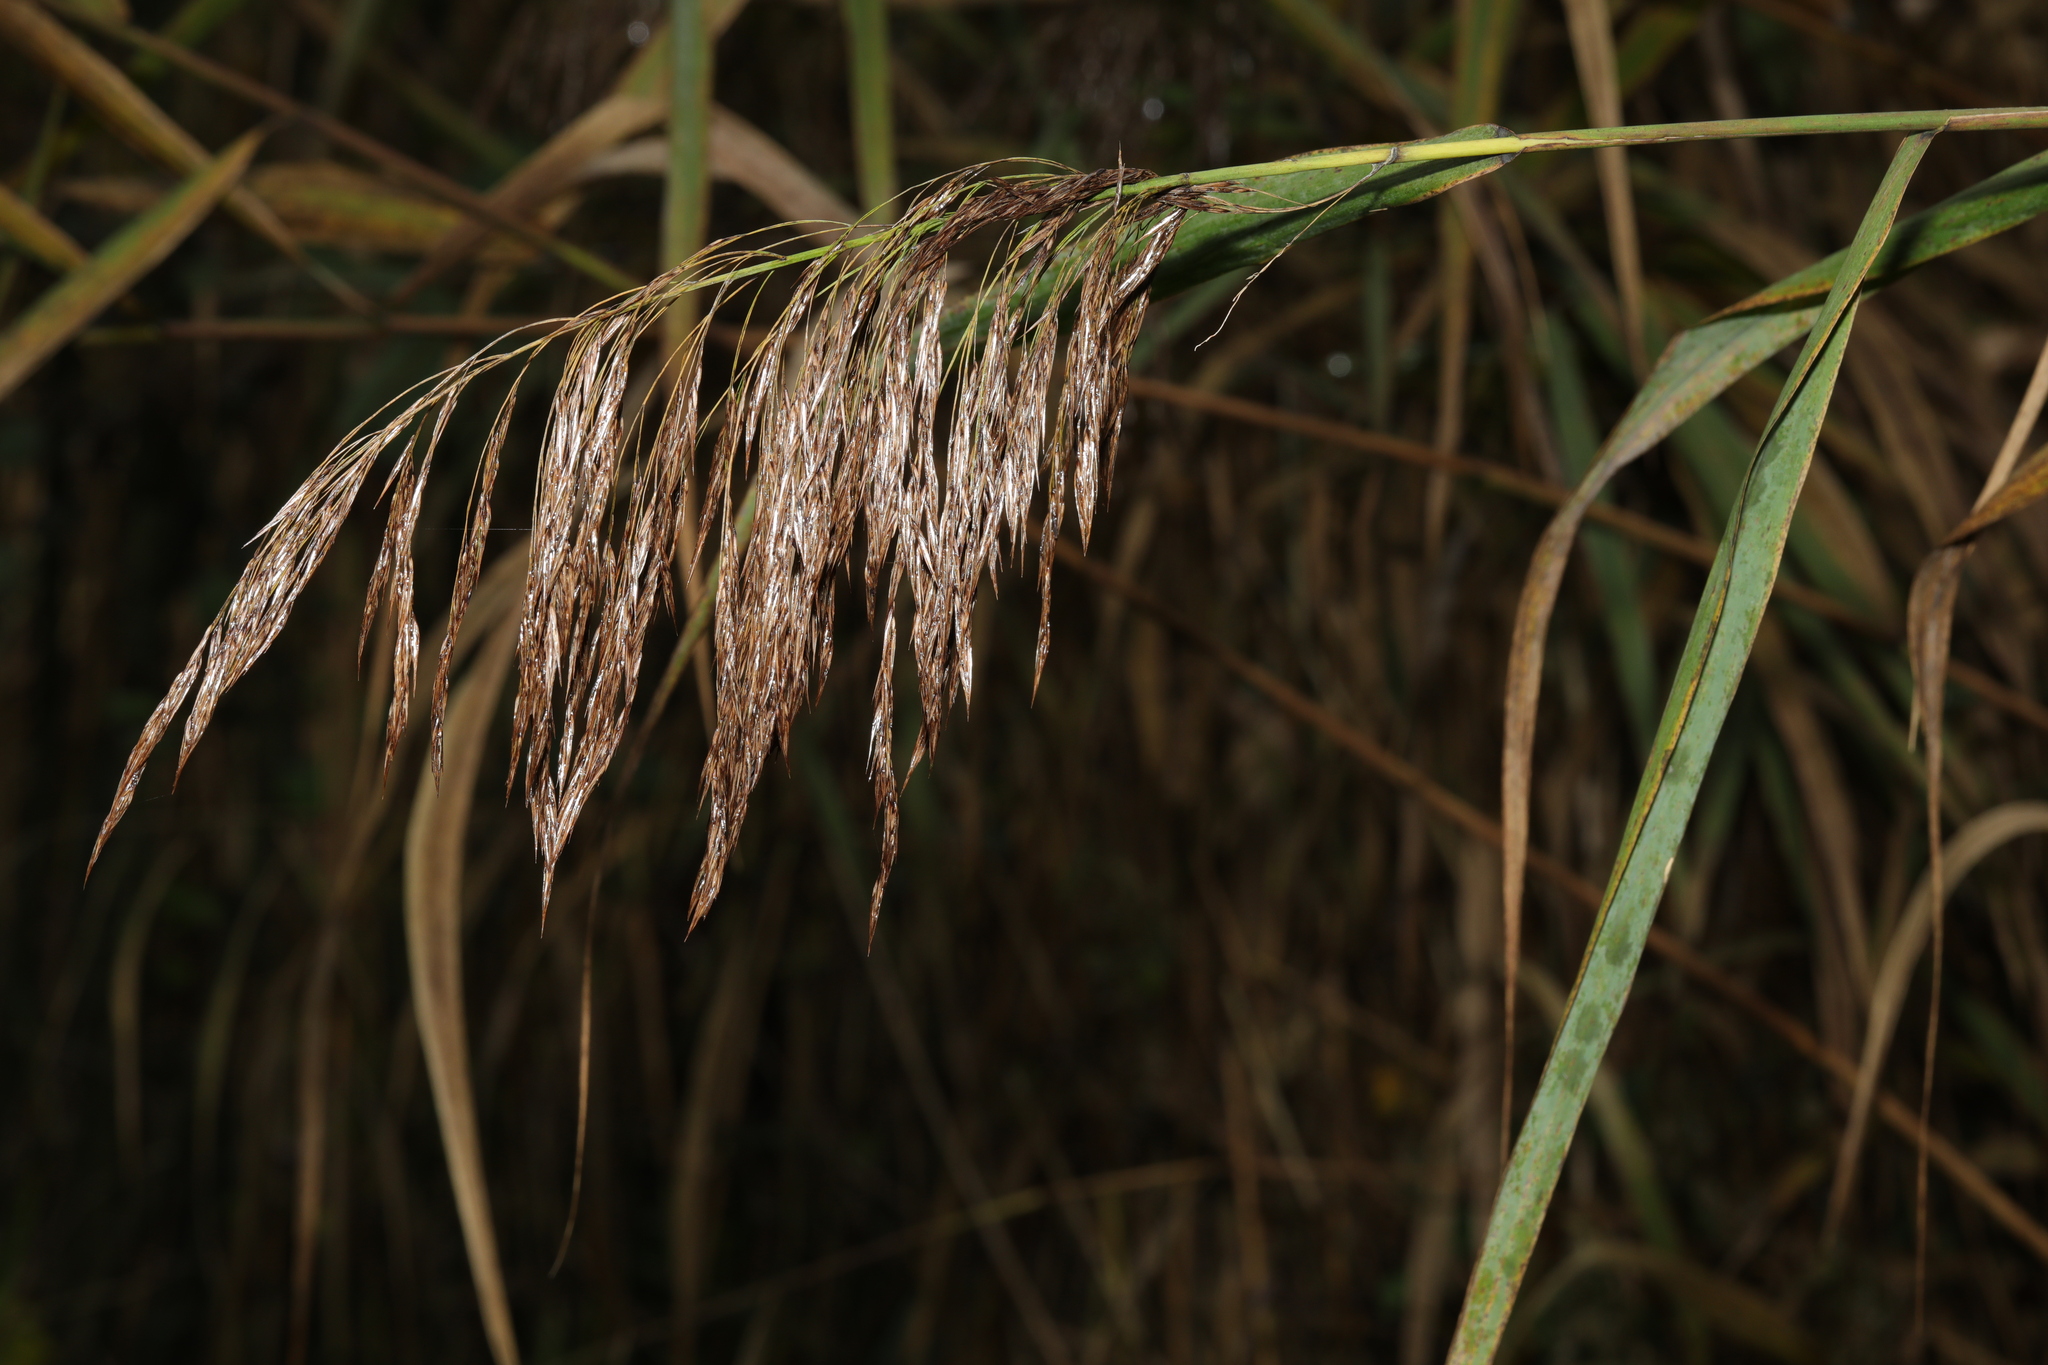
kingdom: Plantae
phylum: Tracheophyta
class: Liliopsida
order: Poales
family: Poaceae
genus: Phragmites
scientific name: Phragmites australis
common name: Common reed
